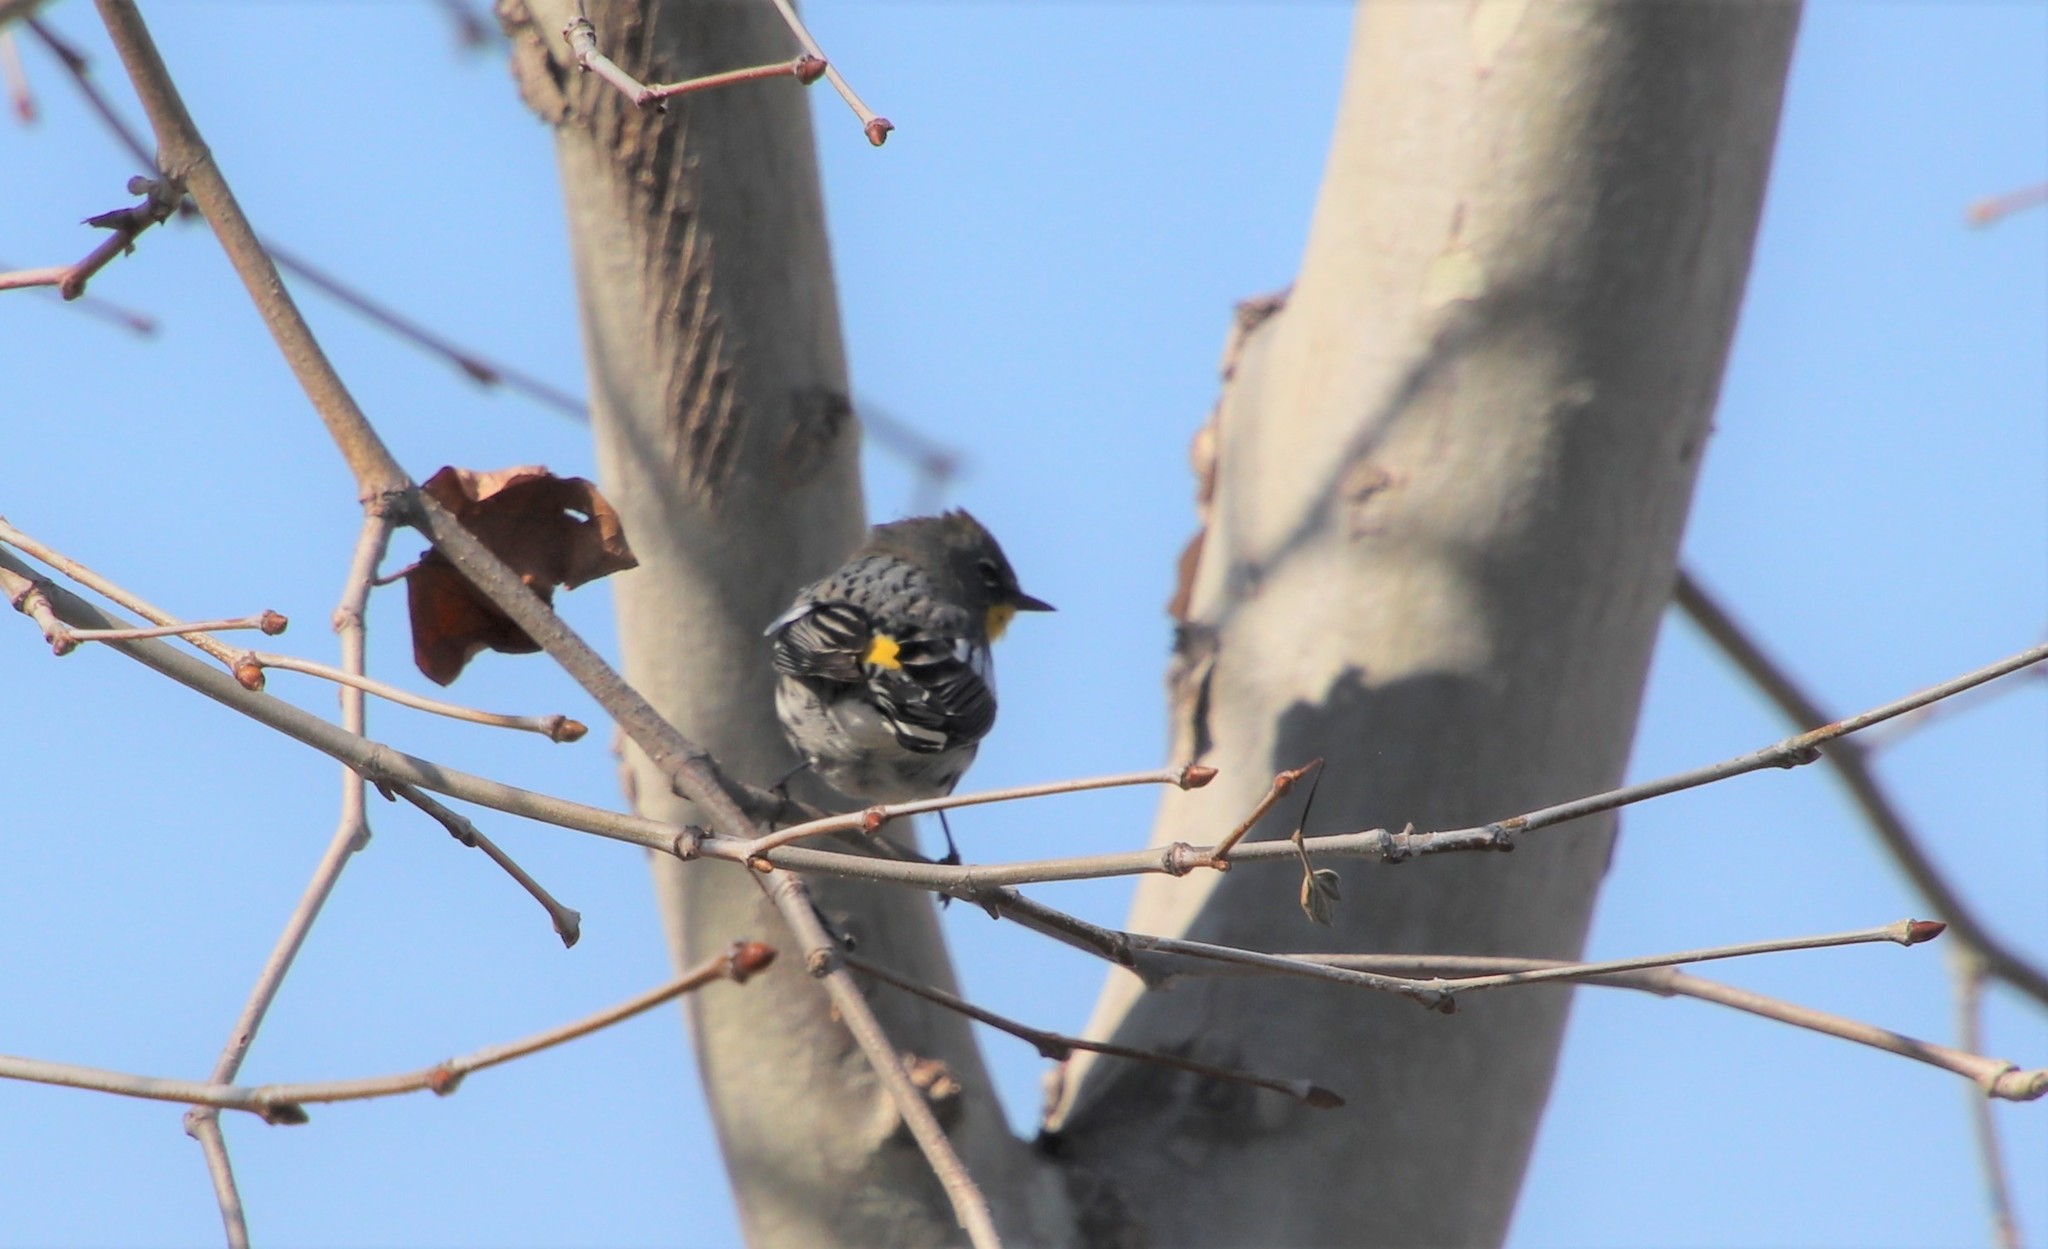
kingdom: Animalia
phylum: Chordata
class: Aves
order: Passeriformes
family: Parulidae
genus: Setophaga
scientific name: Setophaga coronata
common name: Myrtle warbler
